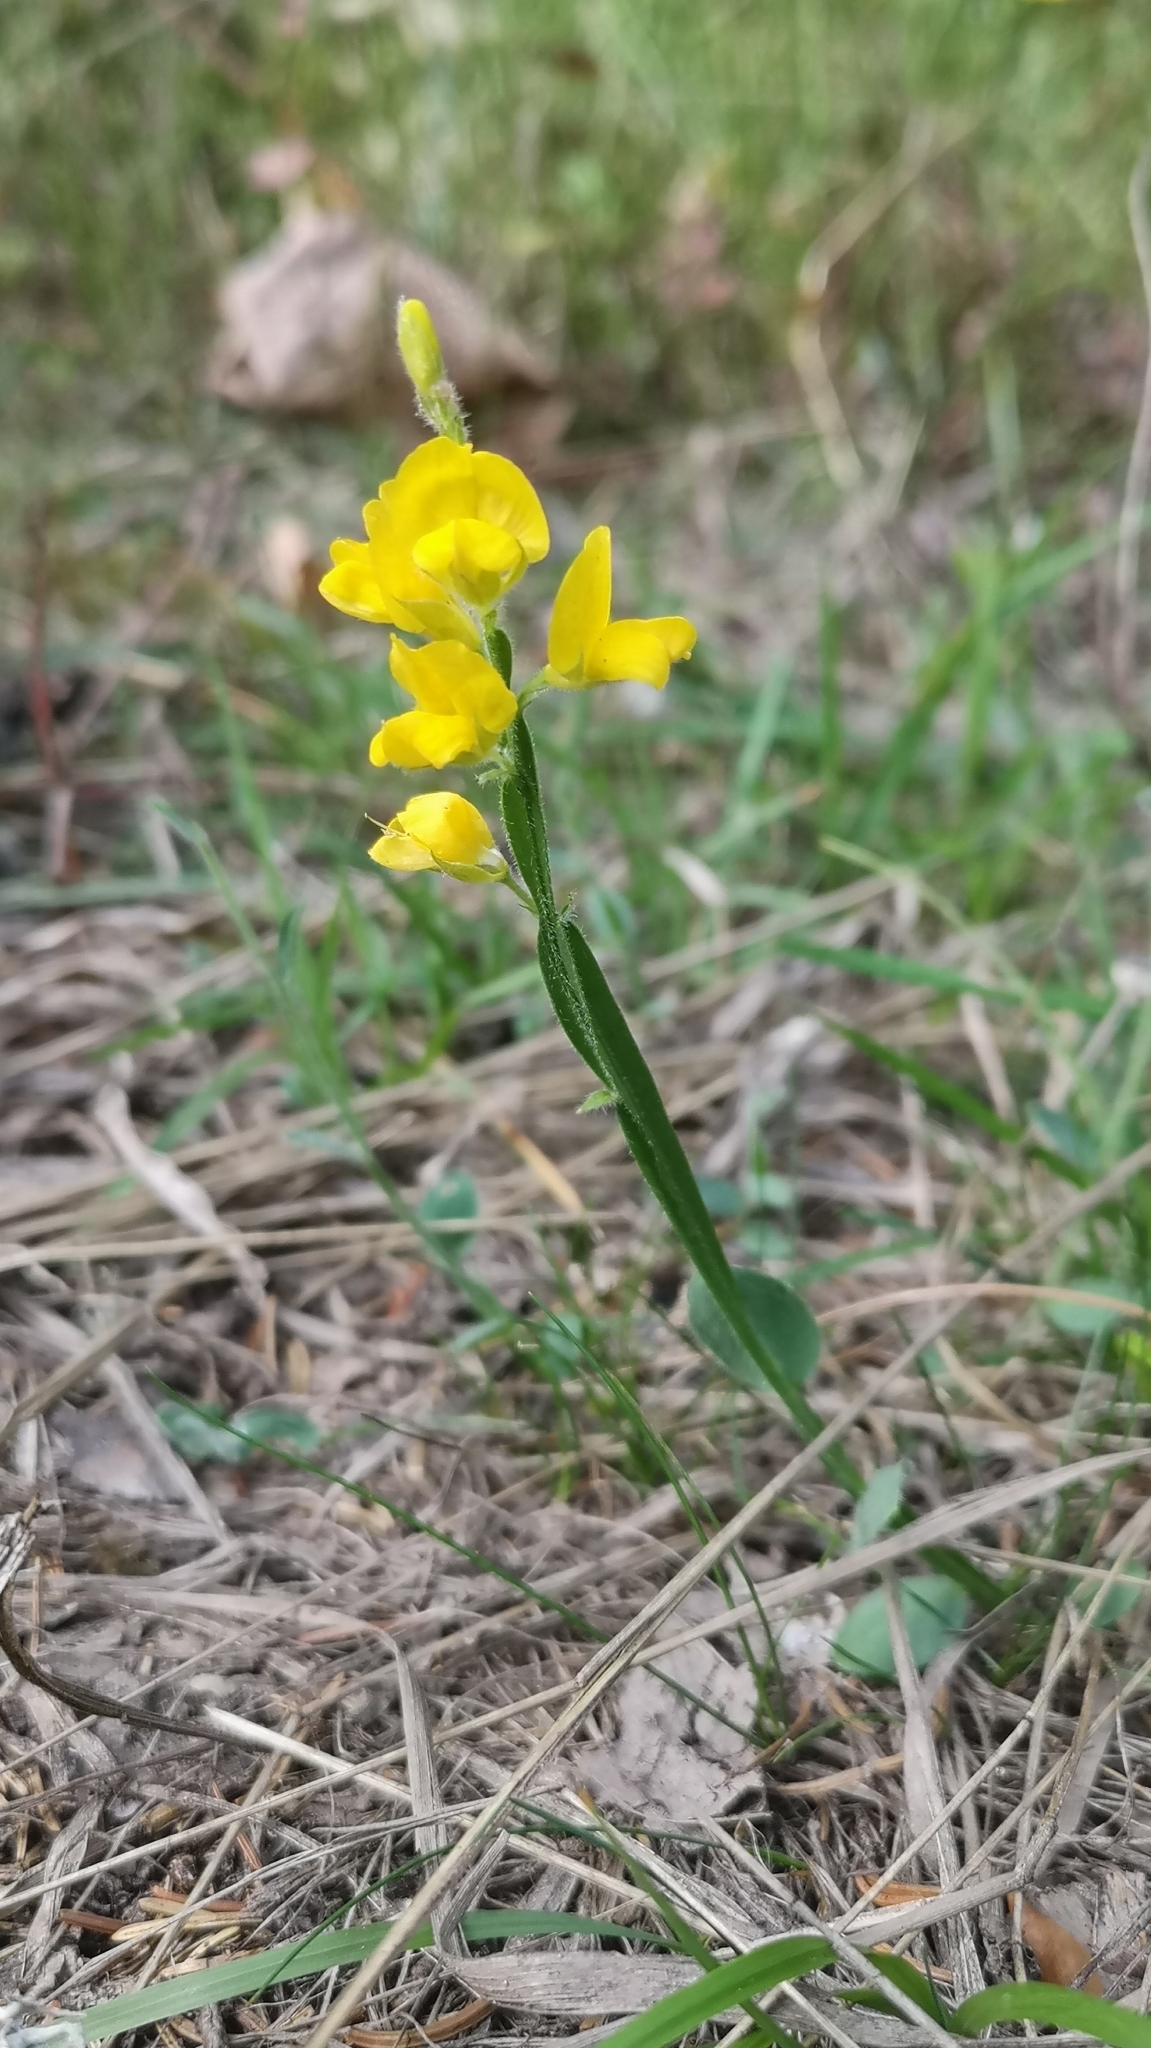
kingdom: Plantae
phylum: Tracheophyta
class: Magnoliopsida
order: Fabales
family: Fabaceae
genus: Genista
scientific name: Genista sagittalis
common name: Winged greenweed
